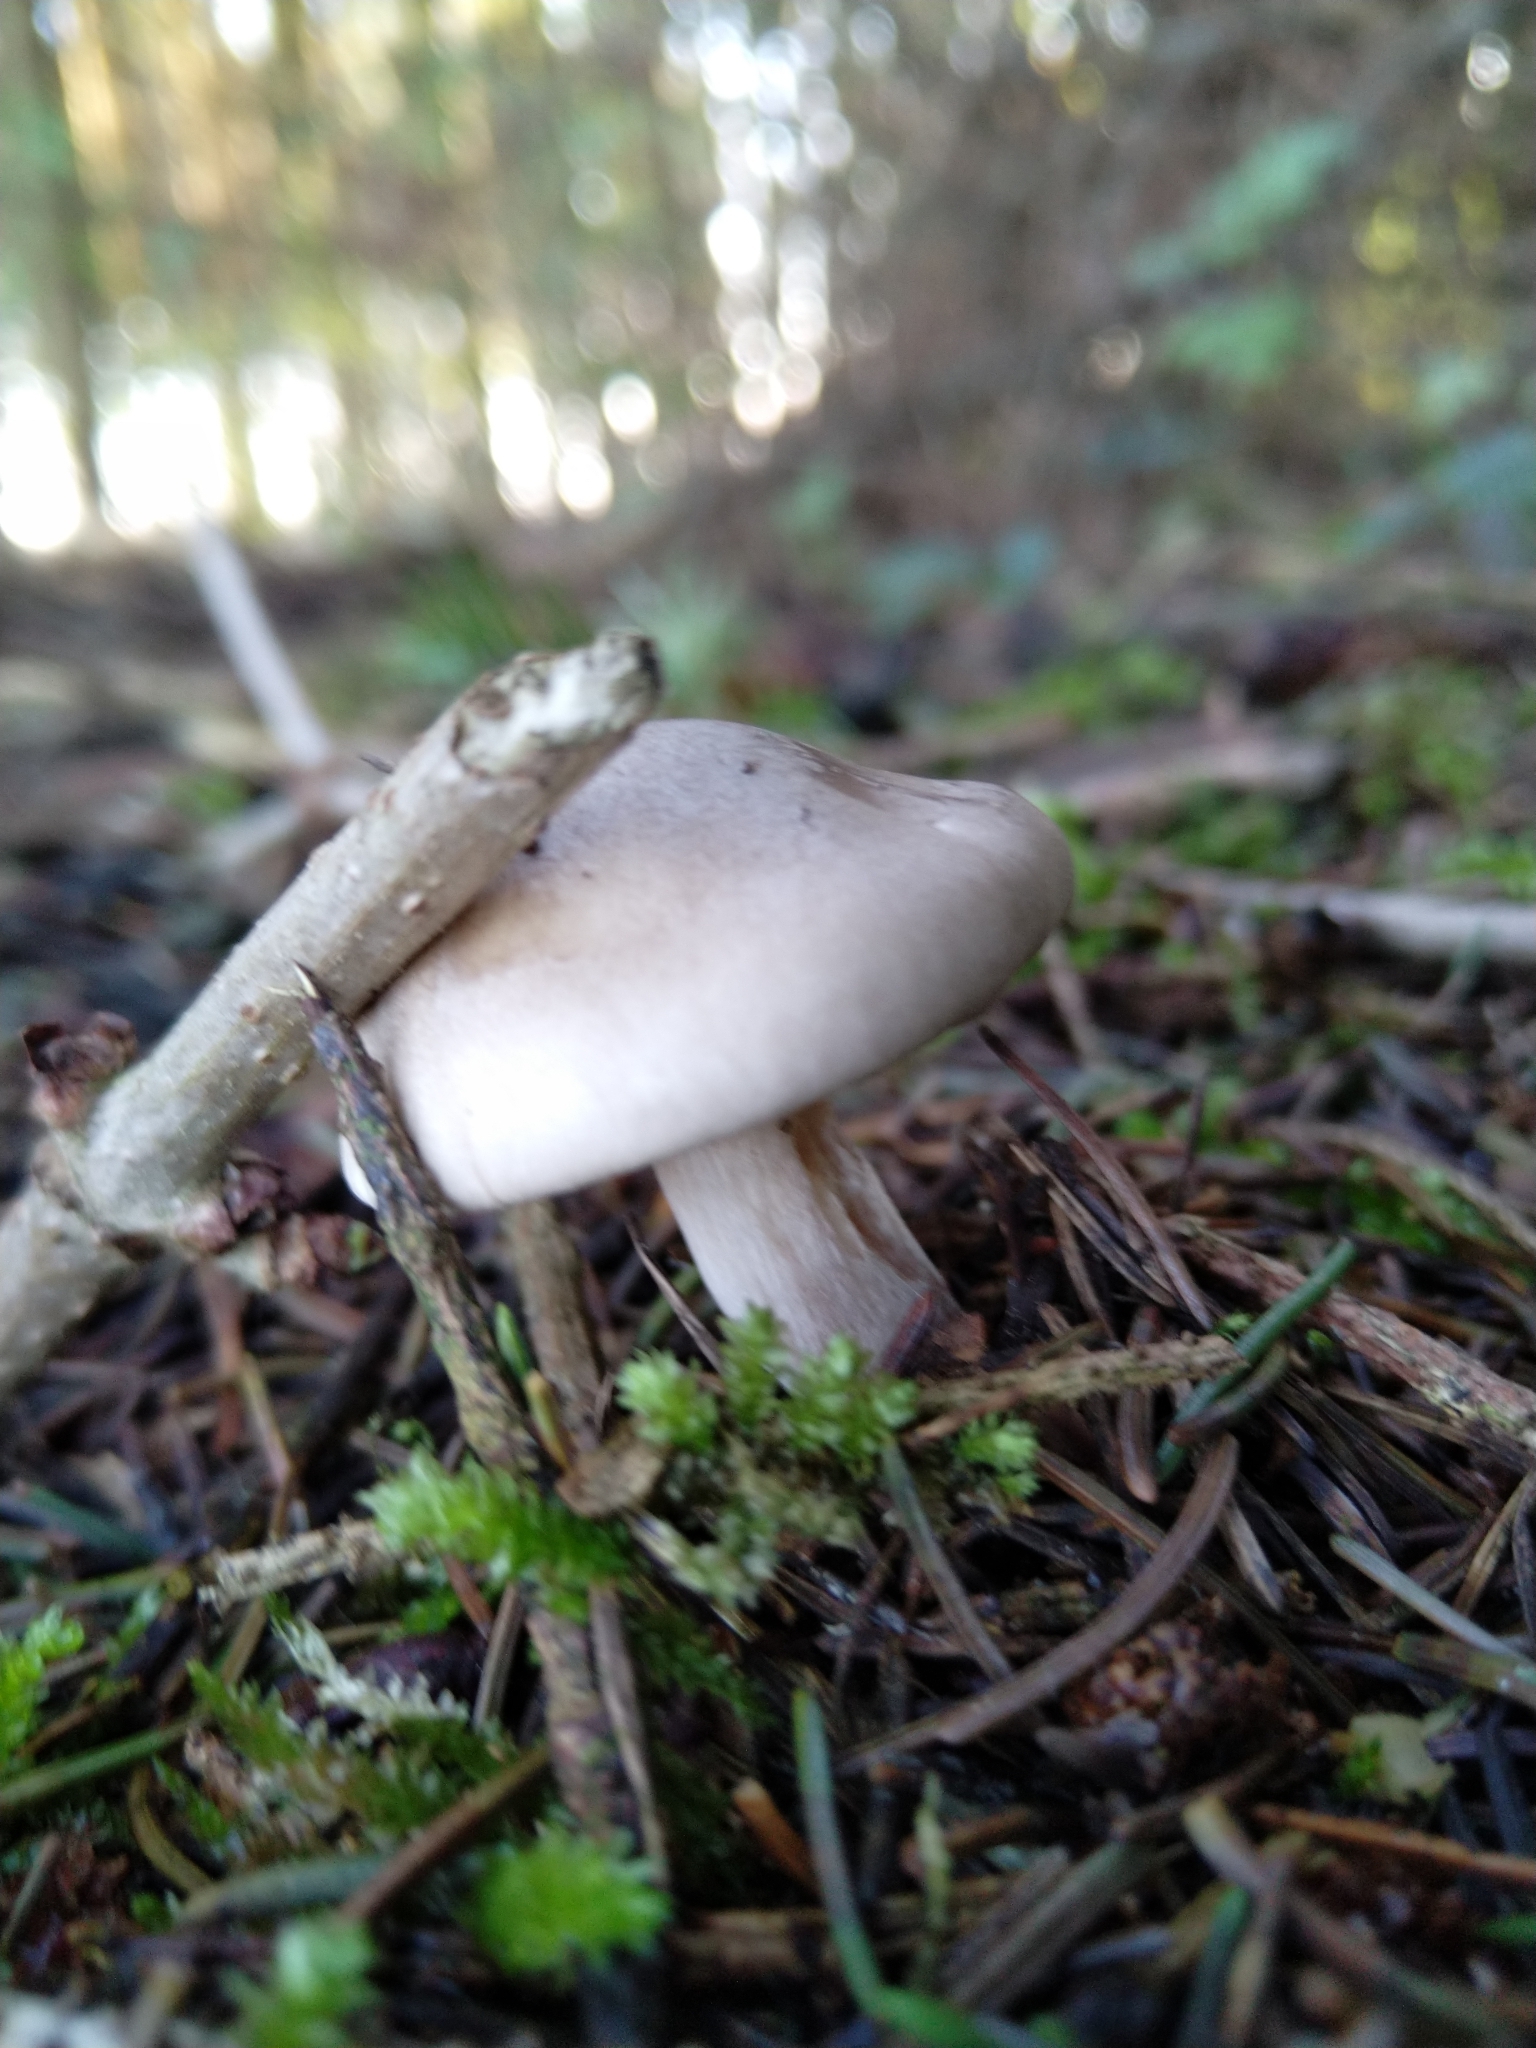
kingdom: Fungi
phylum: Basidiomycota
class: Agaricomycetes
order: Agaricales
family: Tricholomataceae
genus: Clitocybe
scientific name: Clitocybe nebularis
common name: Clouded agaric
